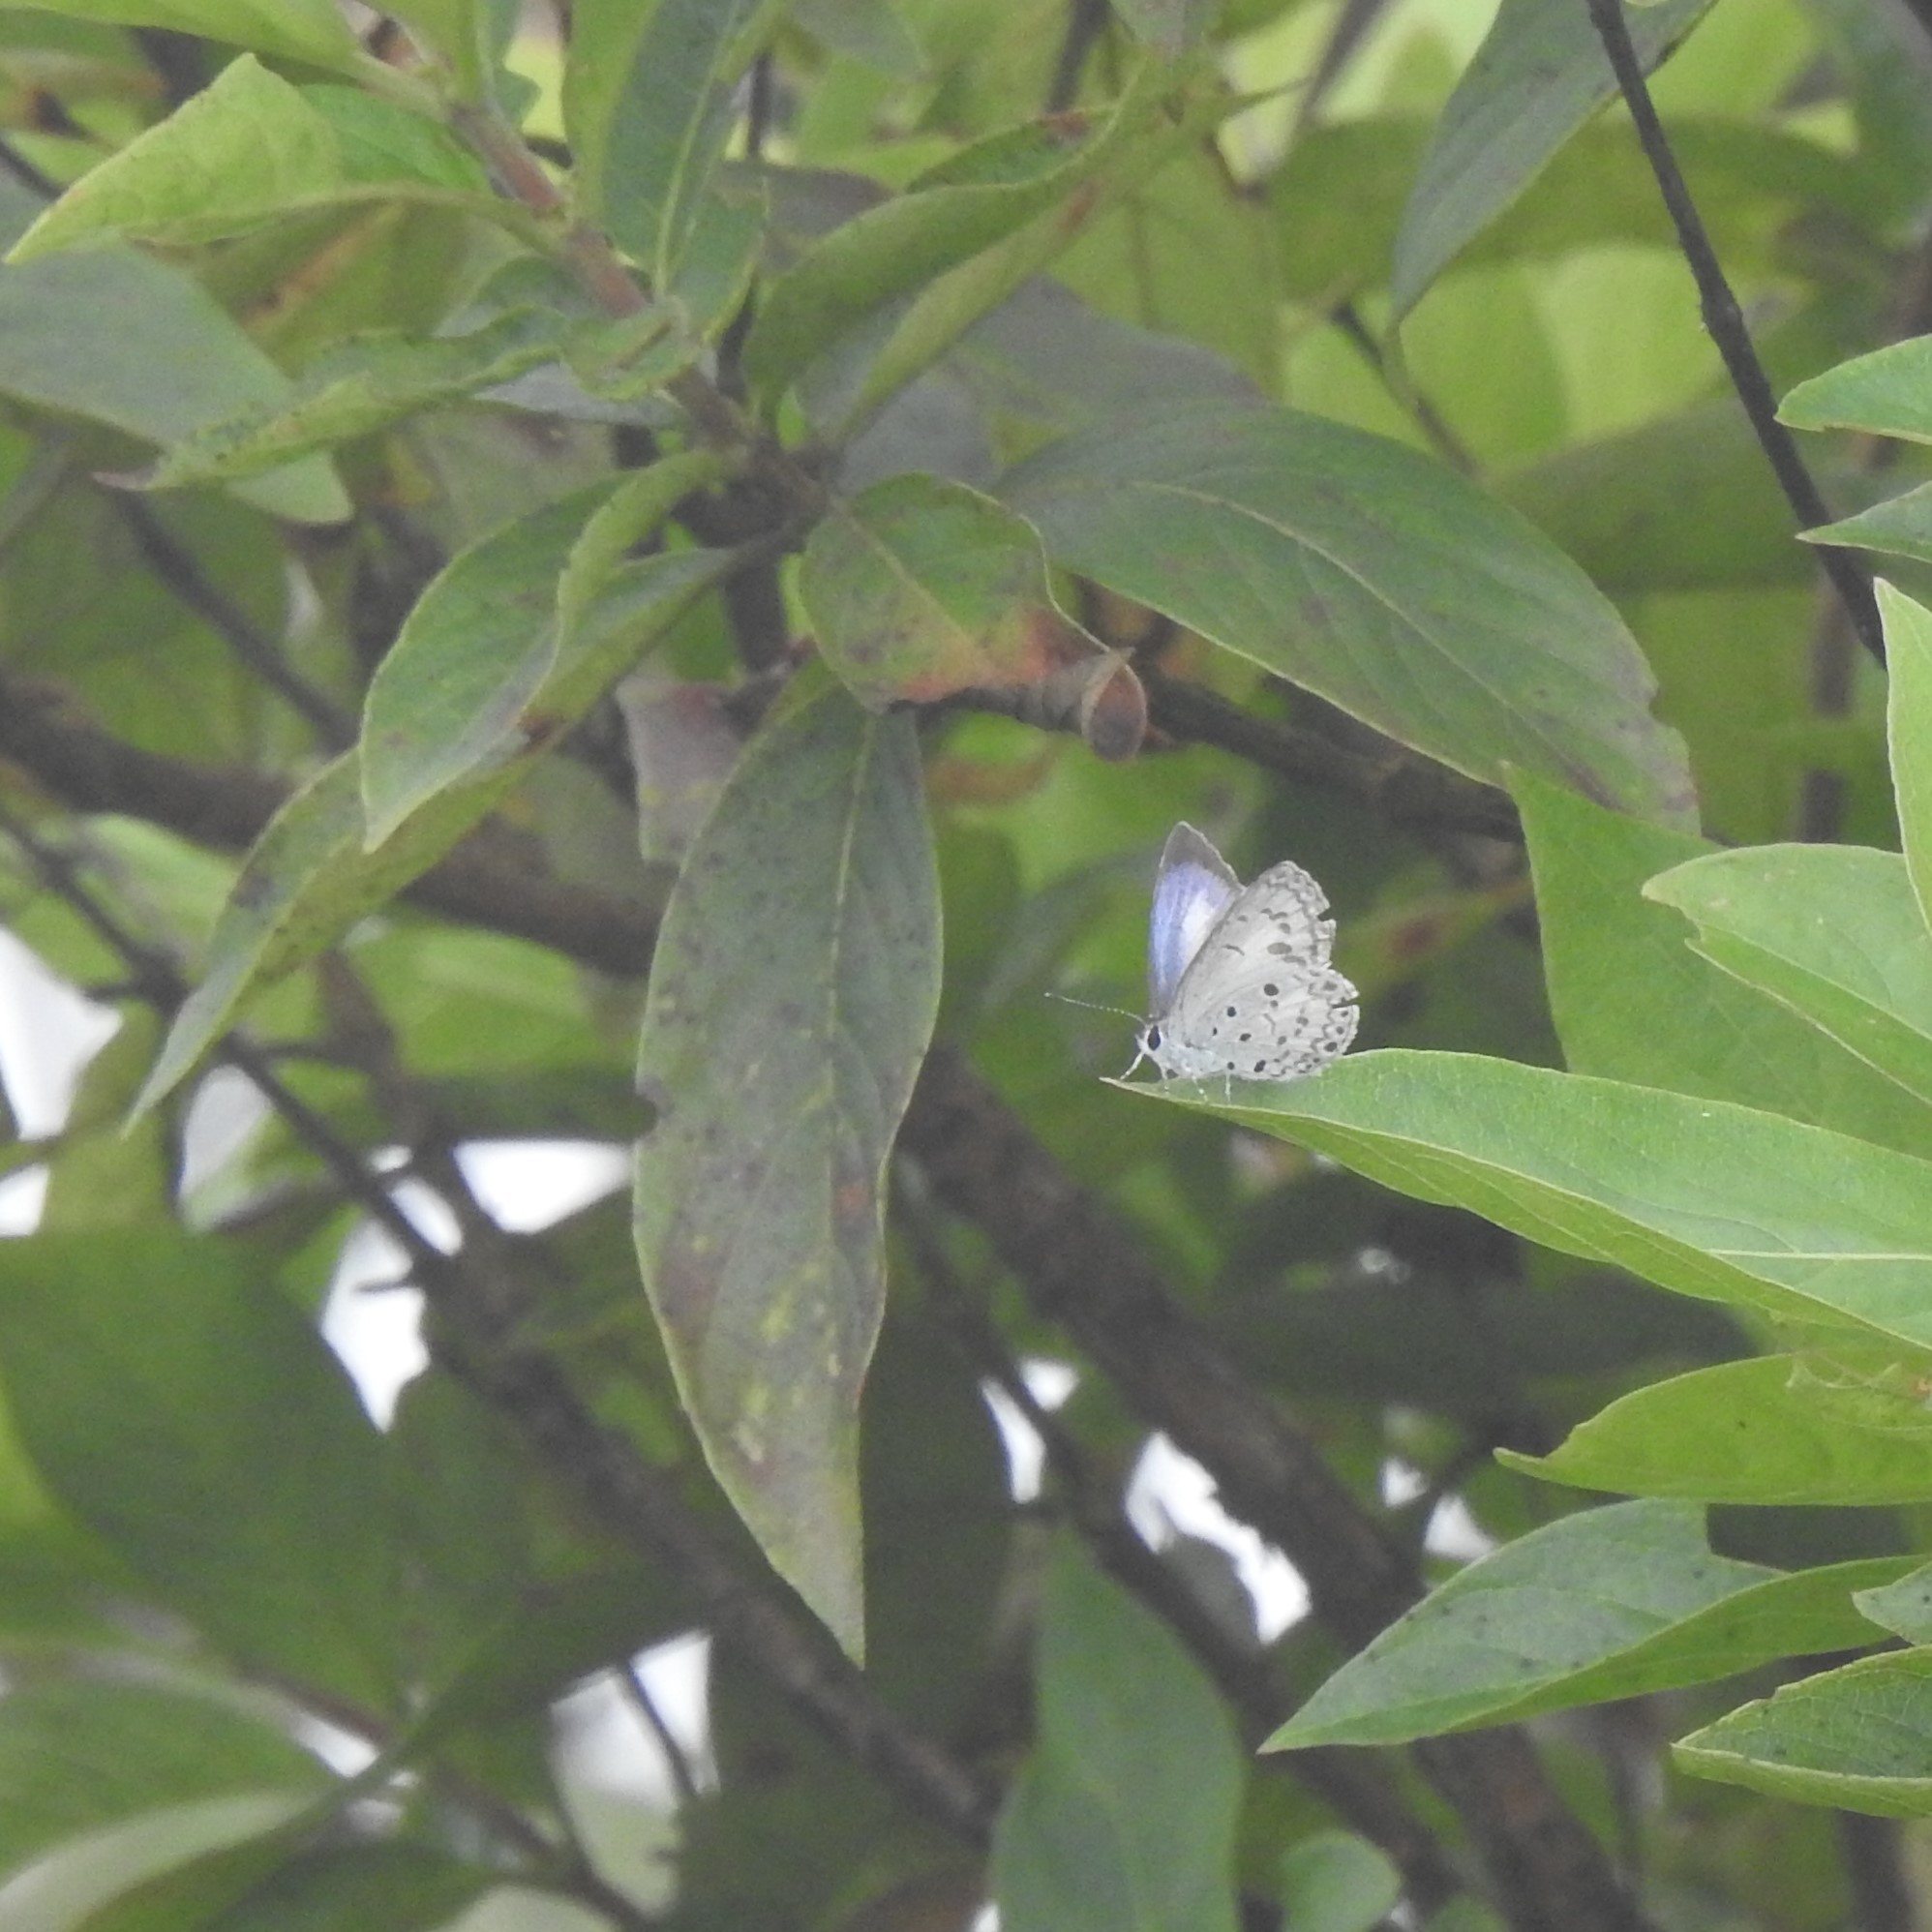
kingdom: Animalia
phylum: Arthropoda
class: Insecta
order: Lepidoptera
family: Lycaenidae
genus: Acytolepis
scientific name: Acytolepis puspa
